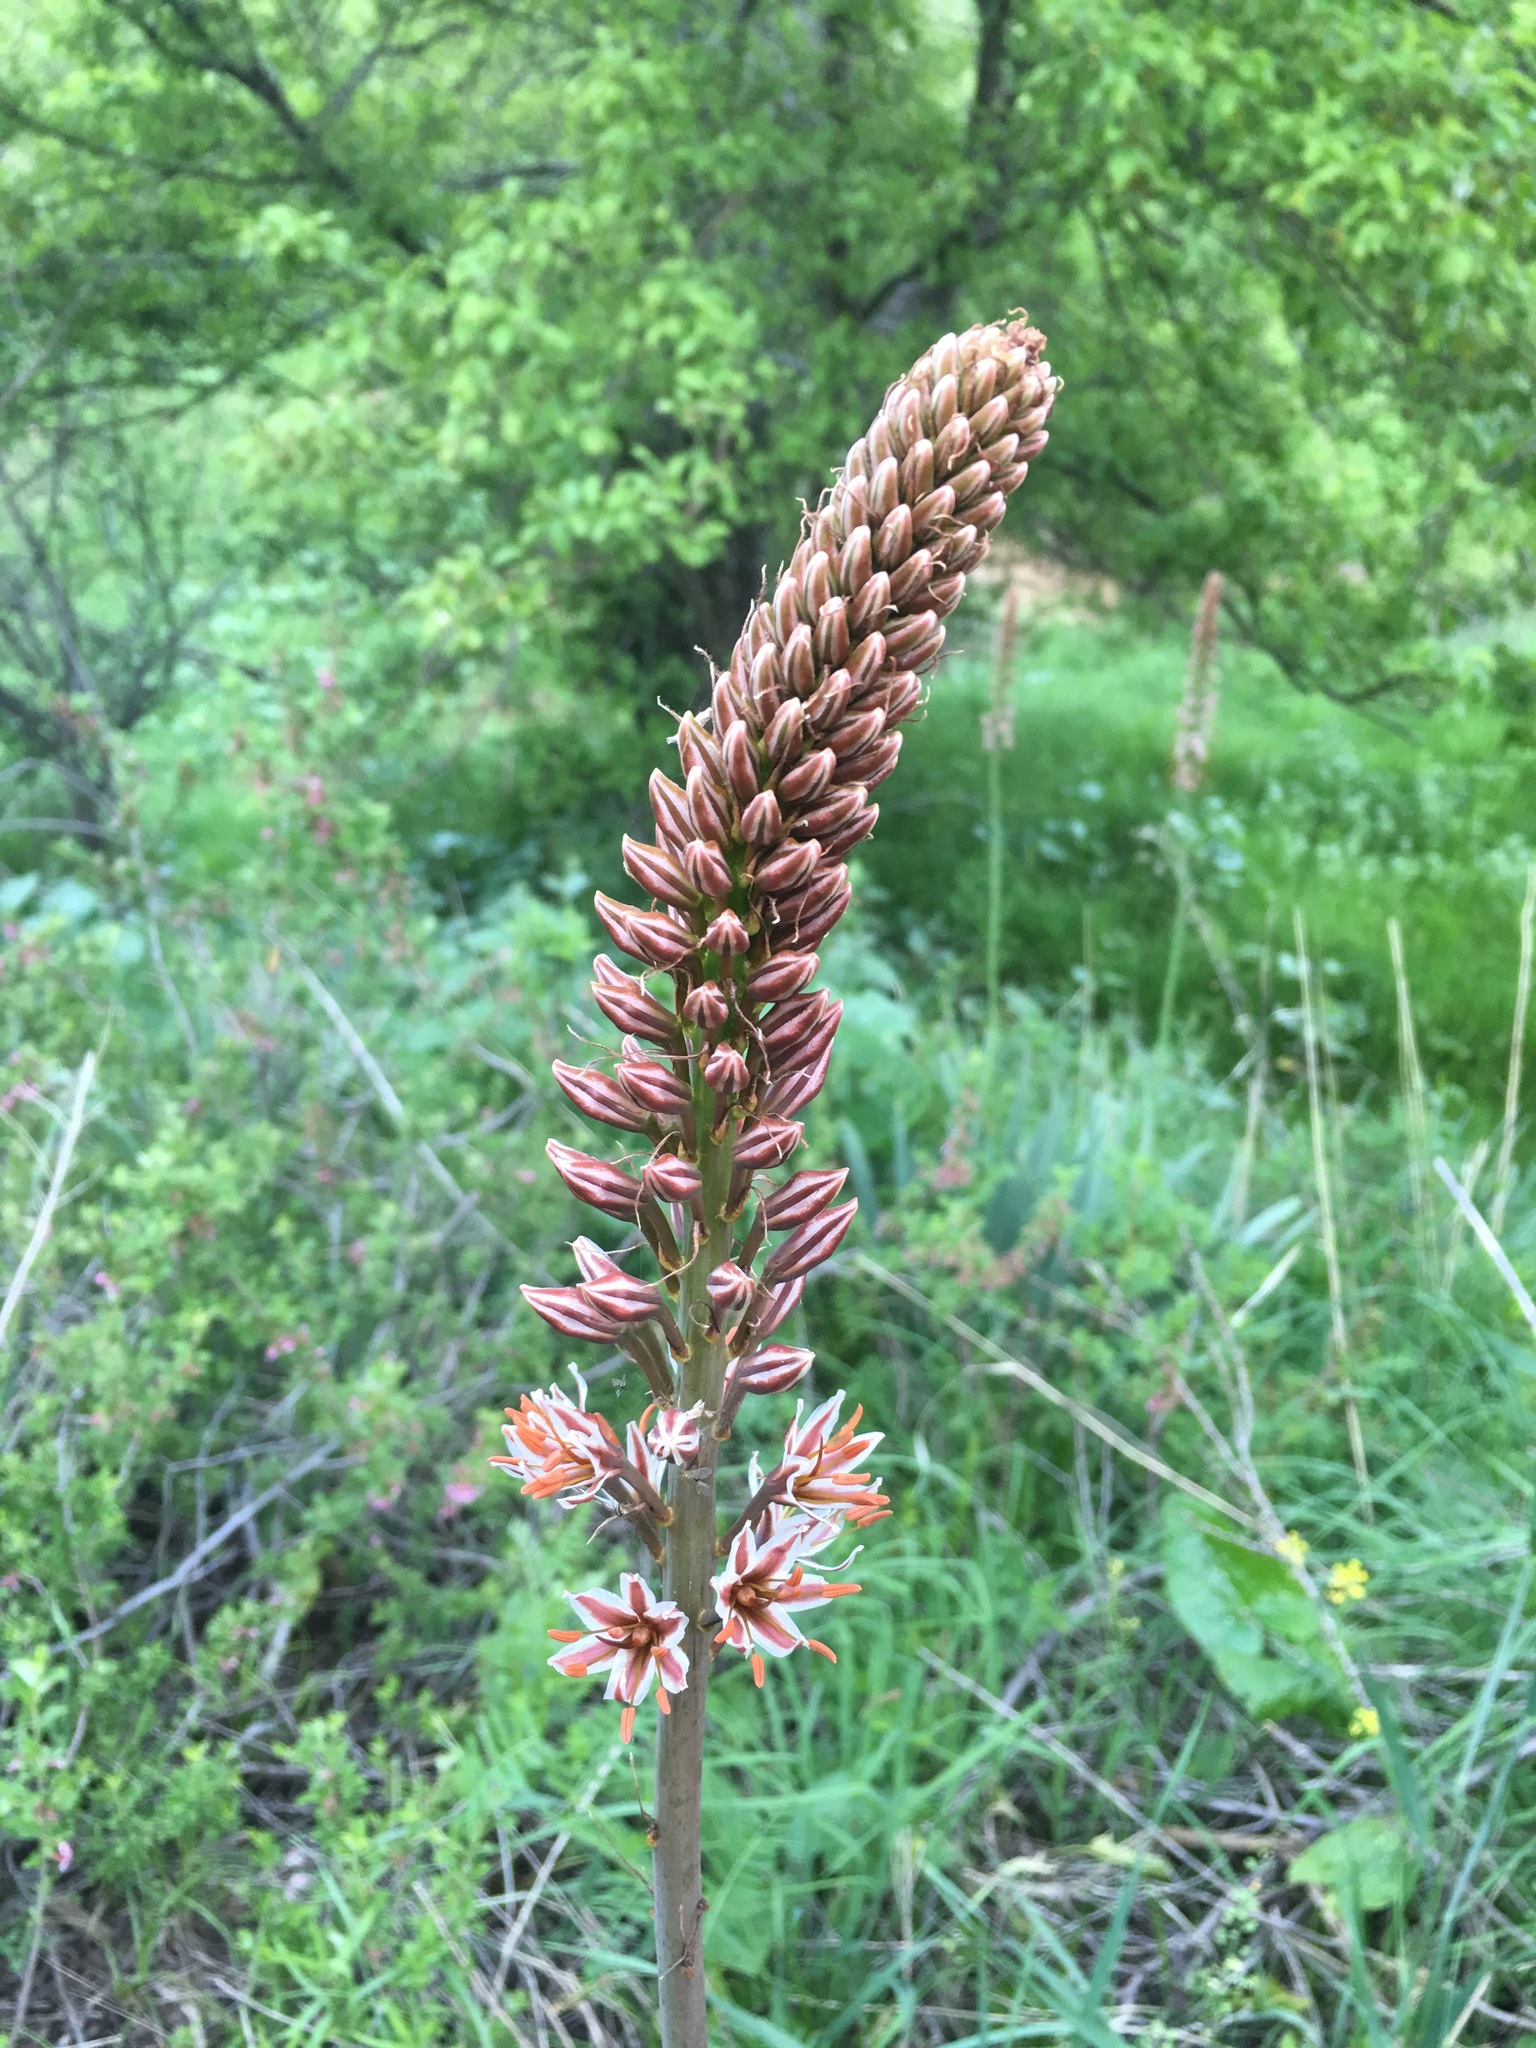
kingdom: Plantae
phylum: Tracheophyta
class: Liliopsida
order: Asparagales
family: Asphodelaceae
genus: Eremurus
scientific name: Eremurus regelii
